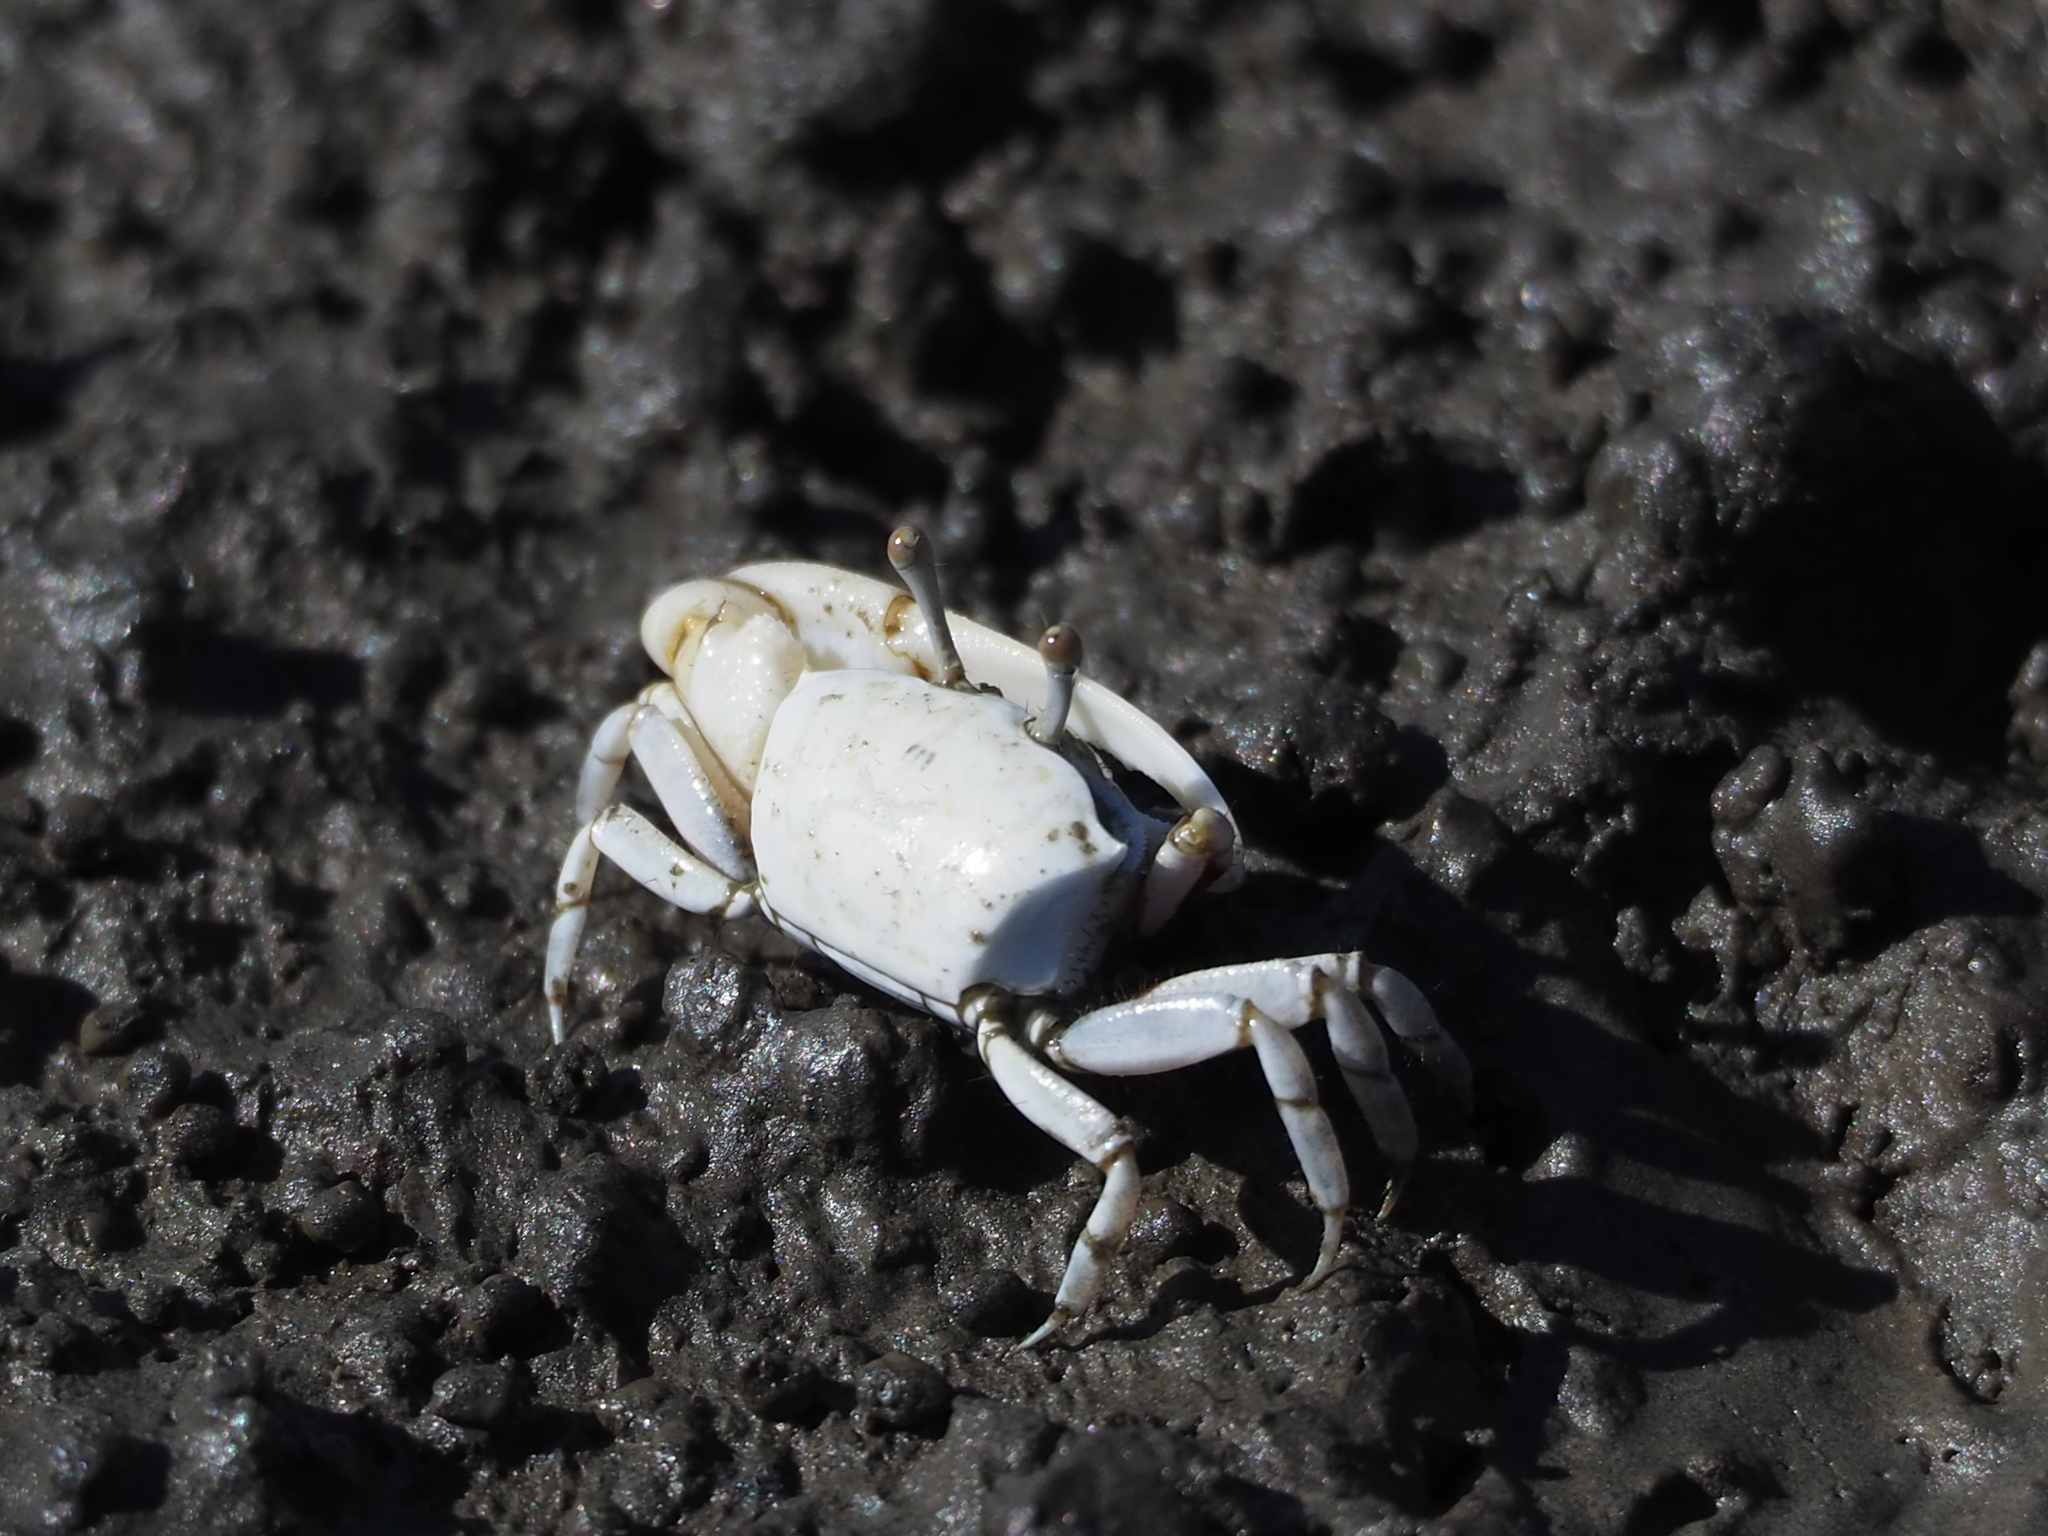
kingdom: Animalia
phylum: Arthropoda
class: Malacostraca
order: Decapoda
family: Ocypodidae
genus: Austruca
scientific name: Austruca lactea
